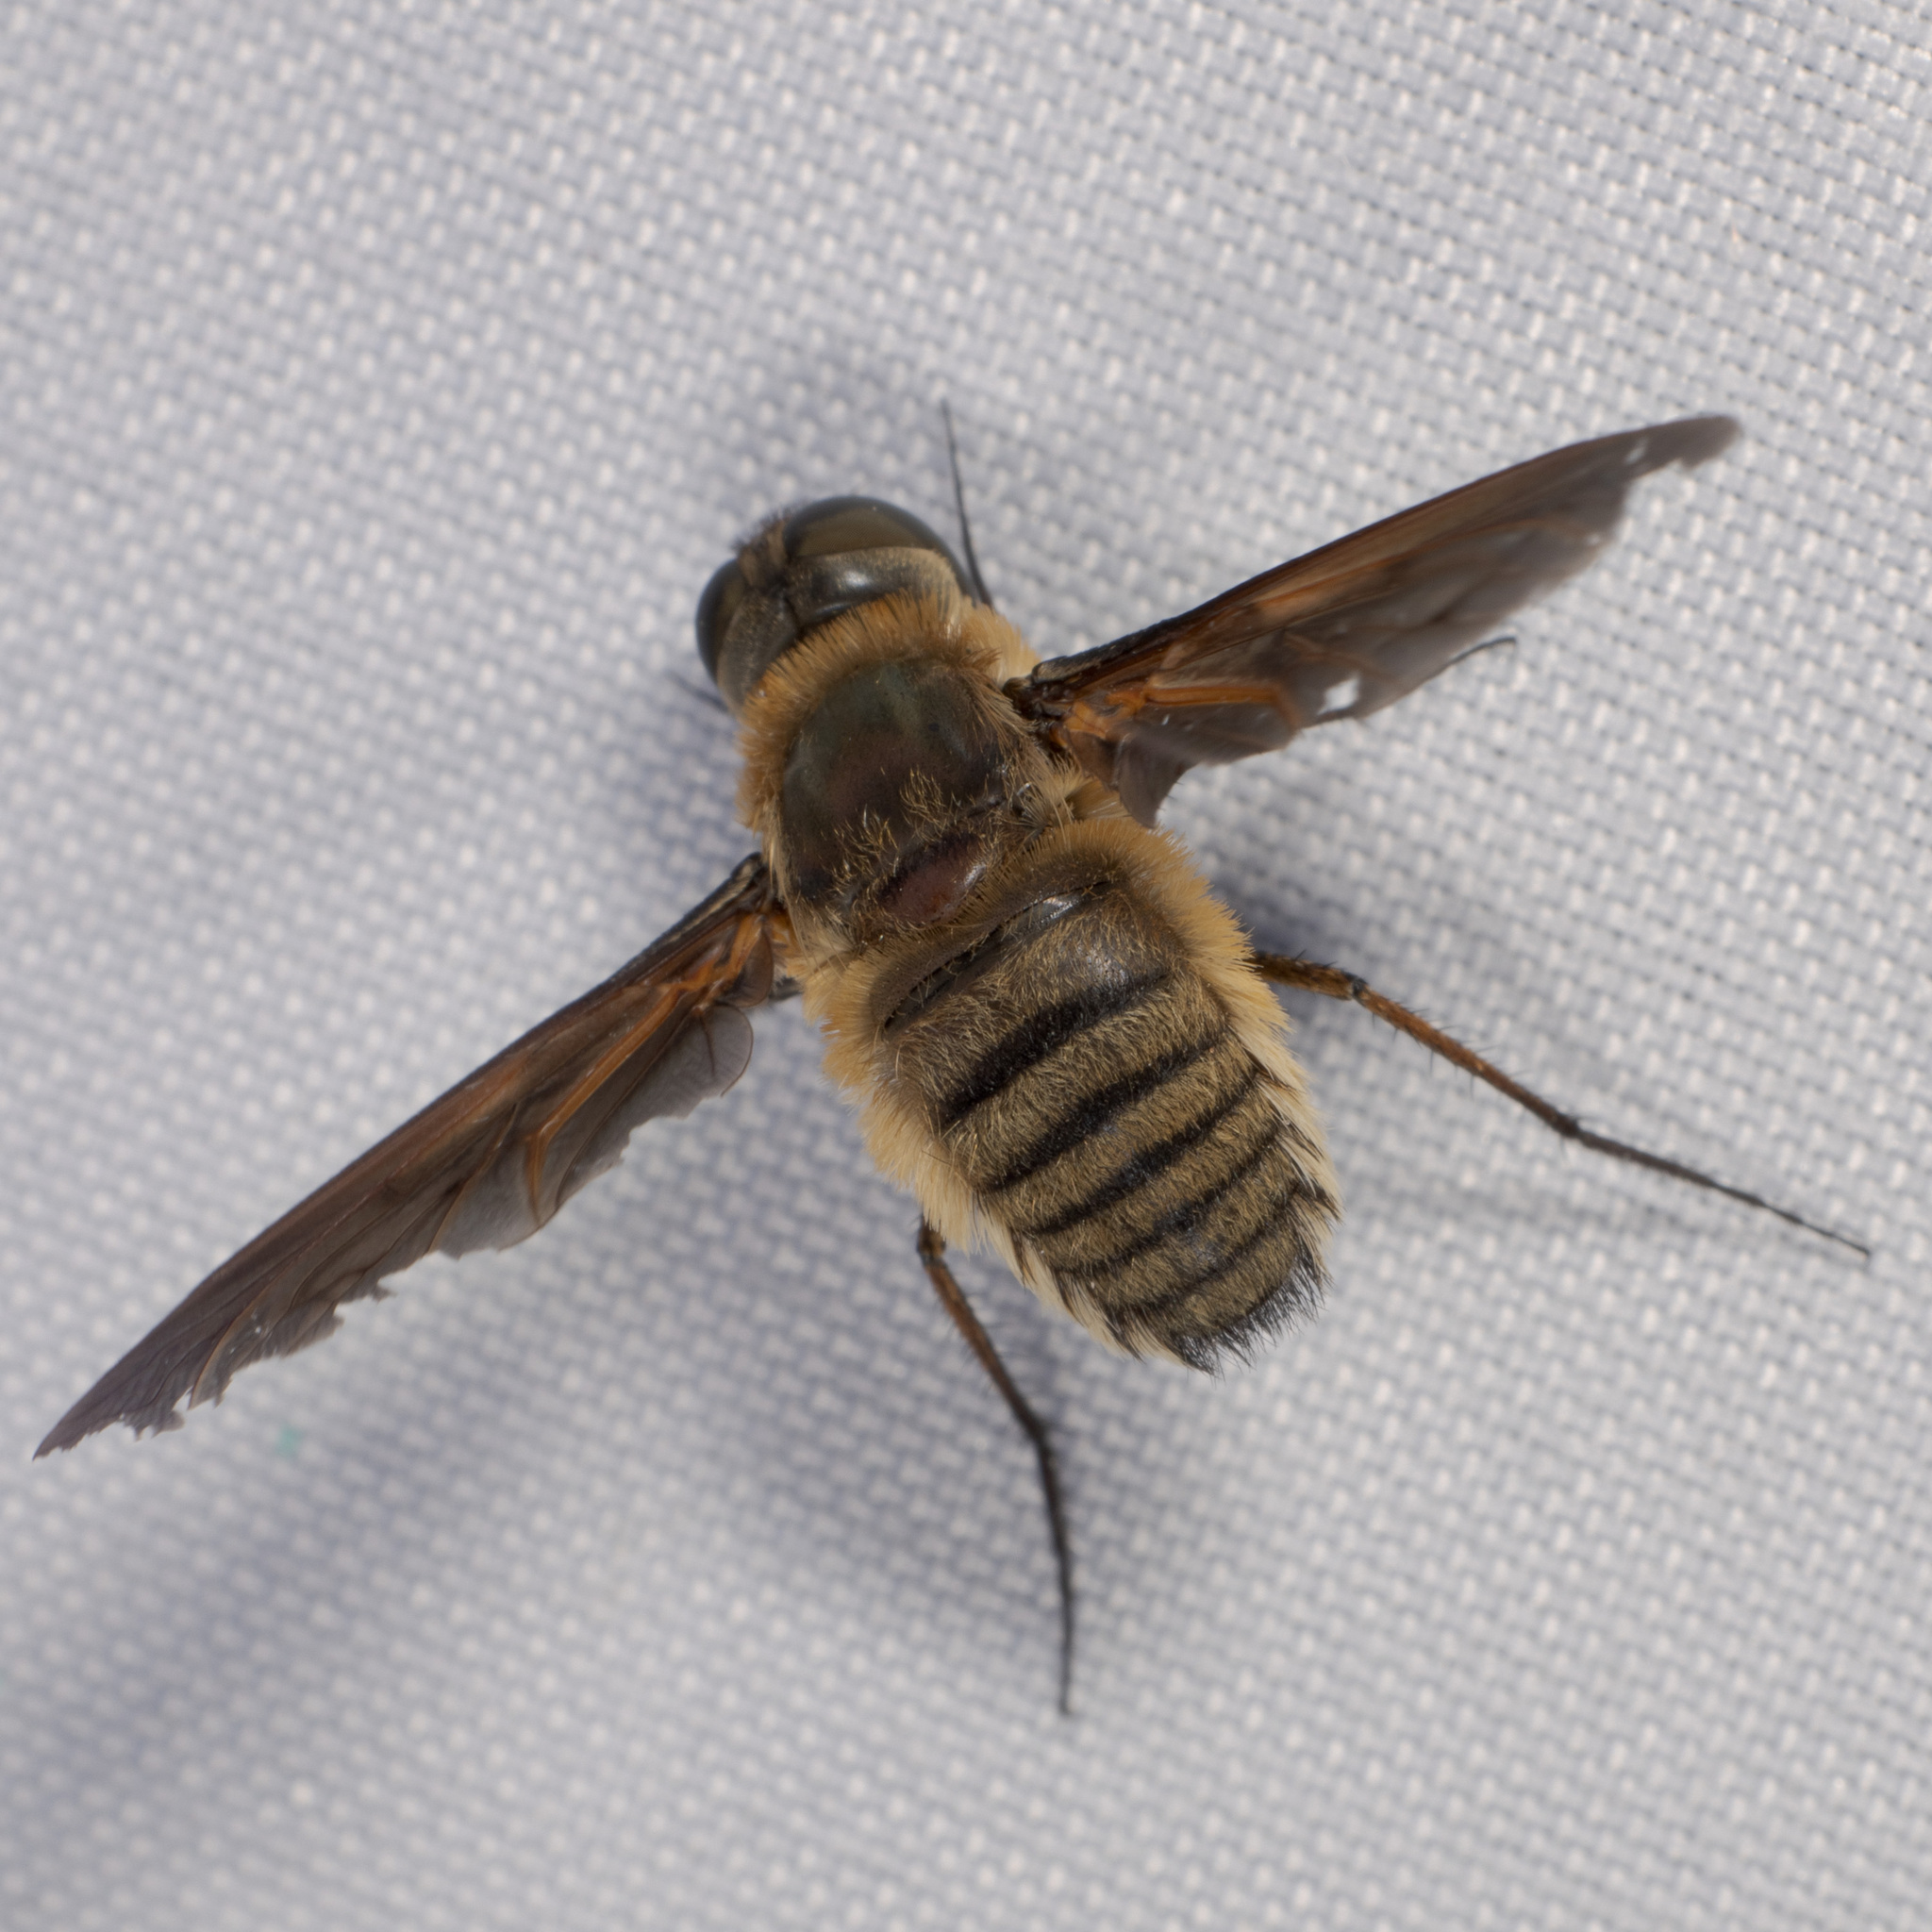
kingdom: Animalia
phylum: Arthropoda
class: Insecta
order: Diptera
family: Bombyliidae
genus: Poecilanthrax
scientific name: Poecilanthrax lucifer
